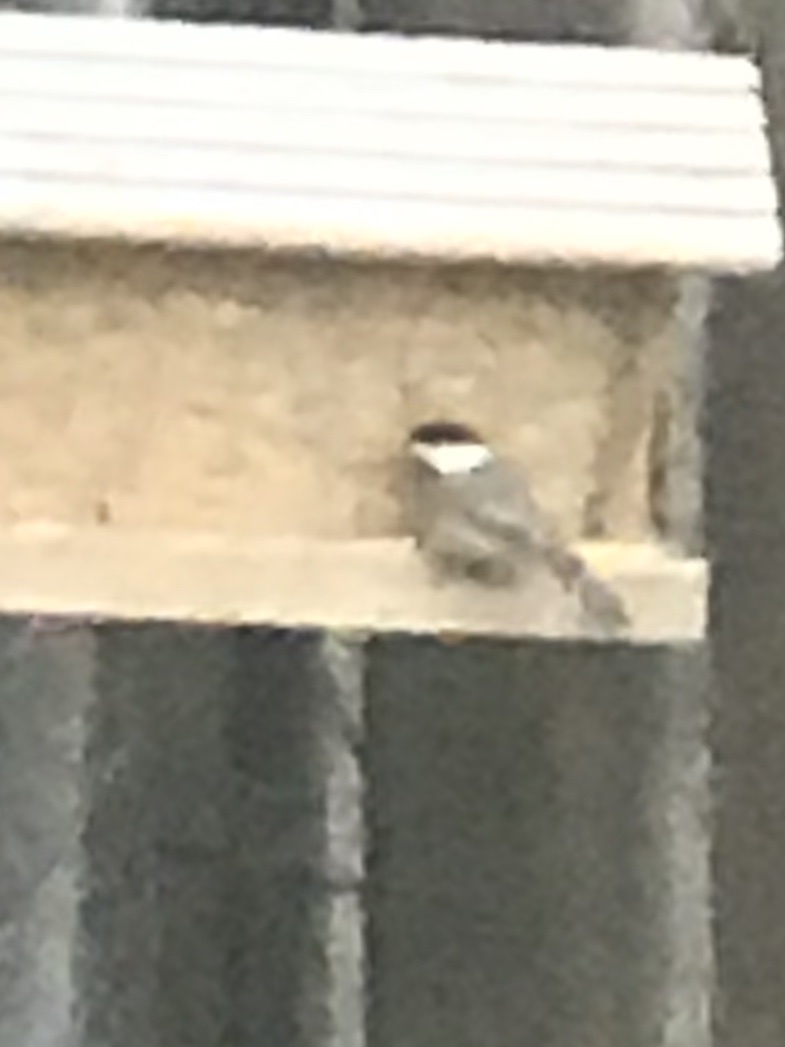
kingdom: Animalia
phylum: Chordata
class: Aves
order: Passeriformes
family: Paridae
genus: Poecile
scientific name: Poecile carolinensis
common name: Carolina chickadee
